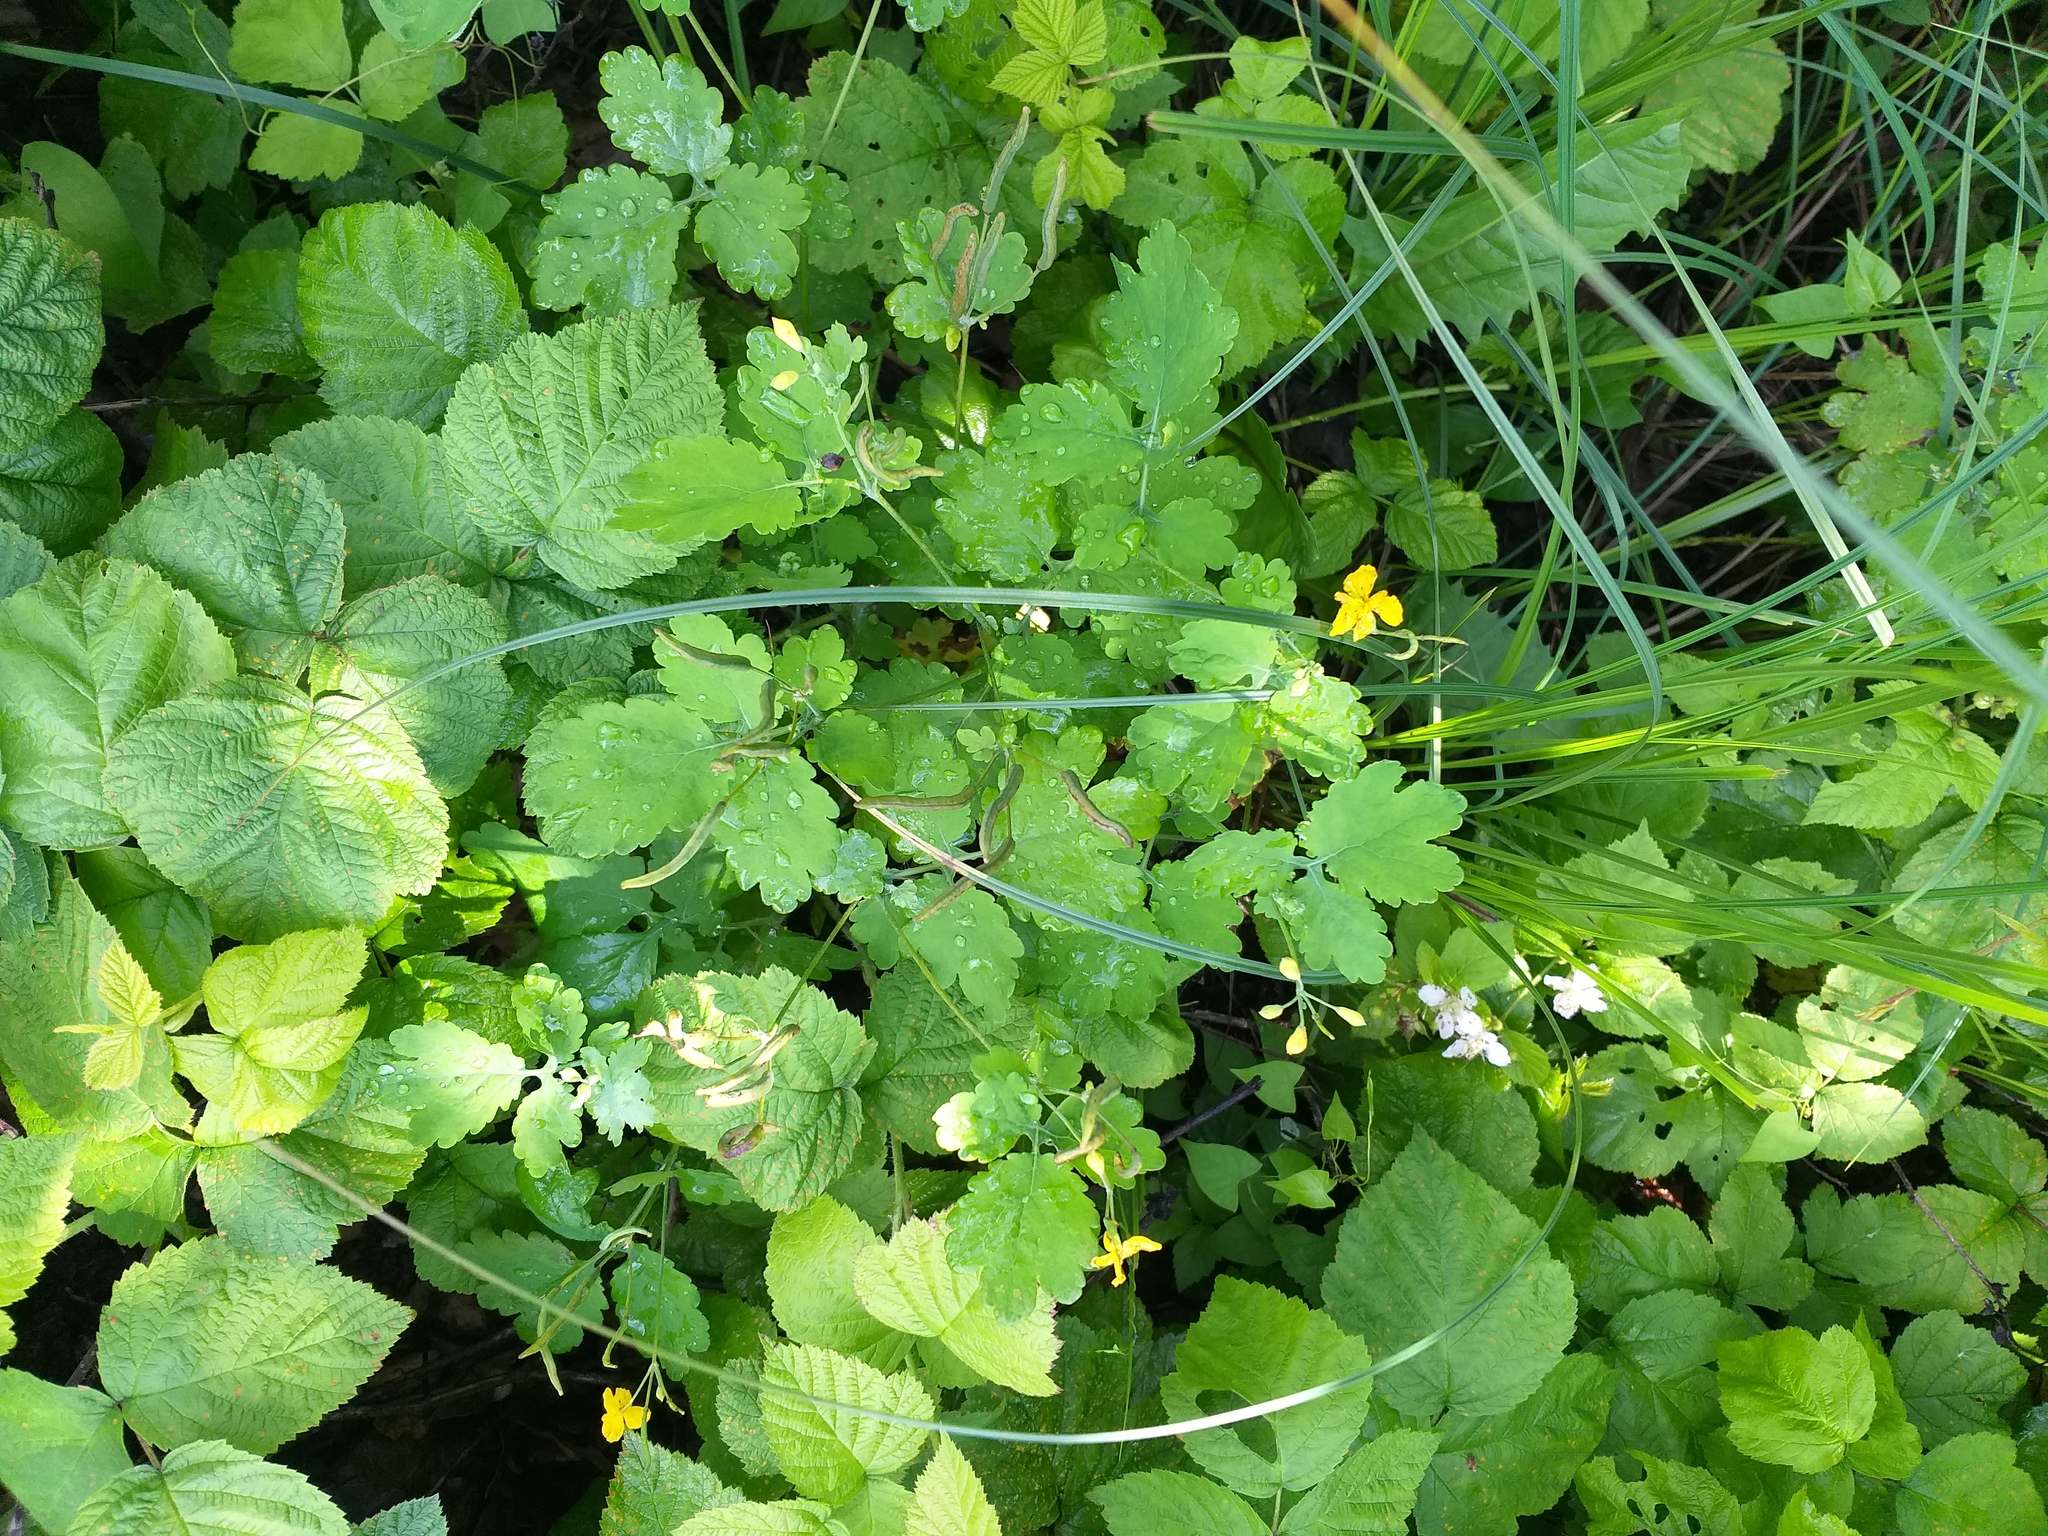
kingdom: Plantae
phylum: Tracheophyta
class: Magnoliopsida
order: Ranunculales
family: Papaveraceae
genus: Chelidonium
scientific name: Chelidonium majus
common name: Greater celandine
